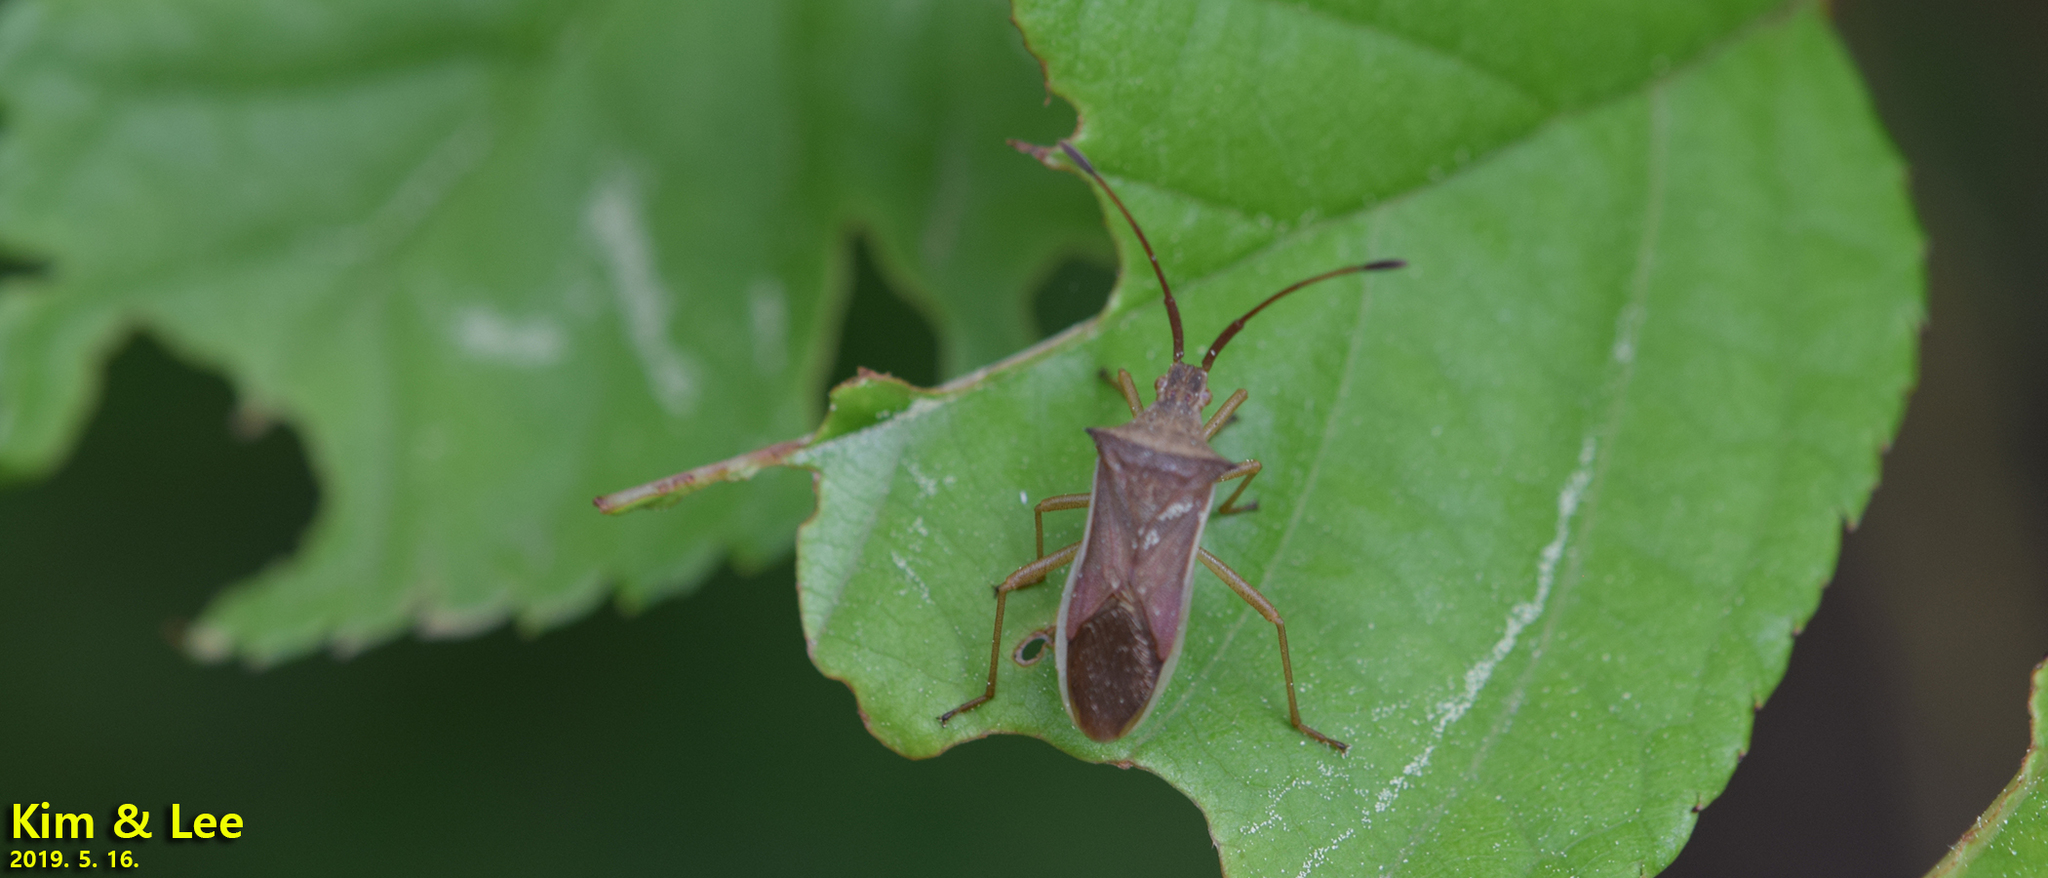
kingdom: Animalia
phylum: Arthropoda
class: Insecta
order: Hemiptera
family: Coreidae
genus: Cletus
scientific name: Cletus punctiger
